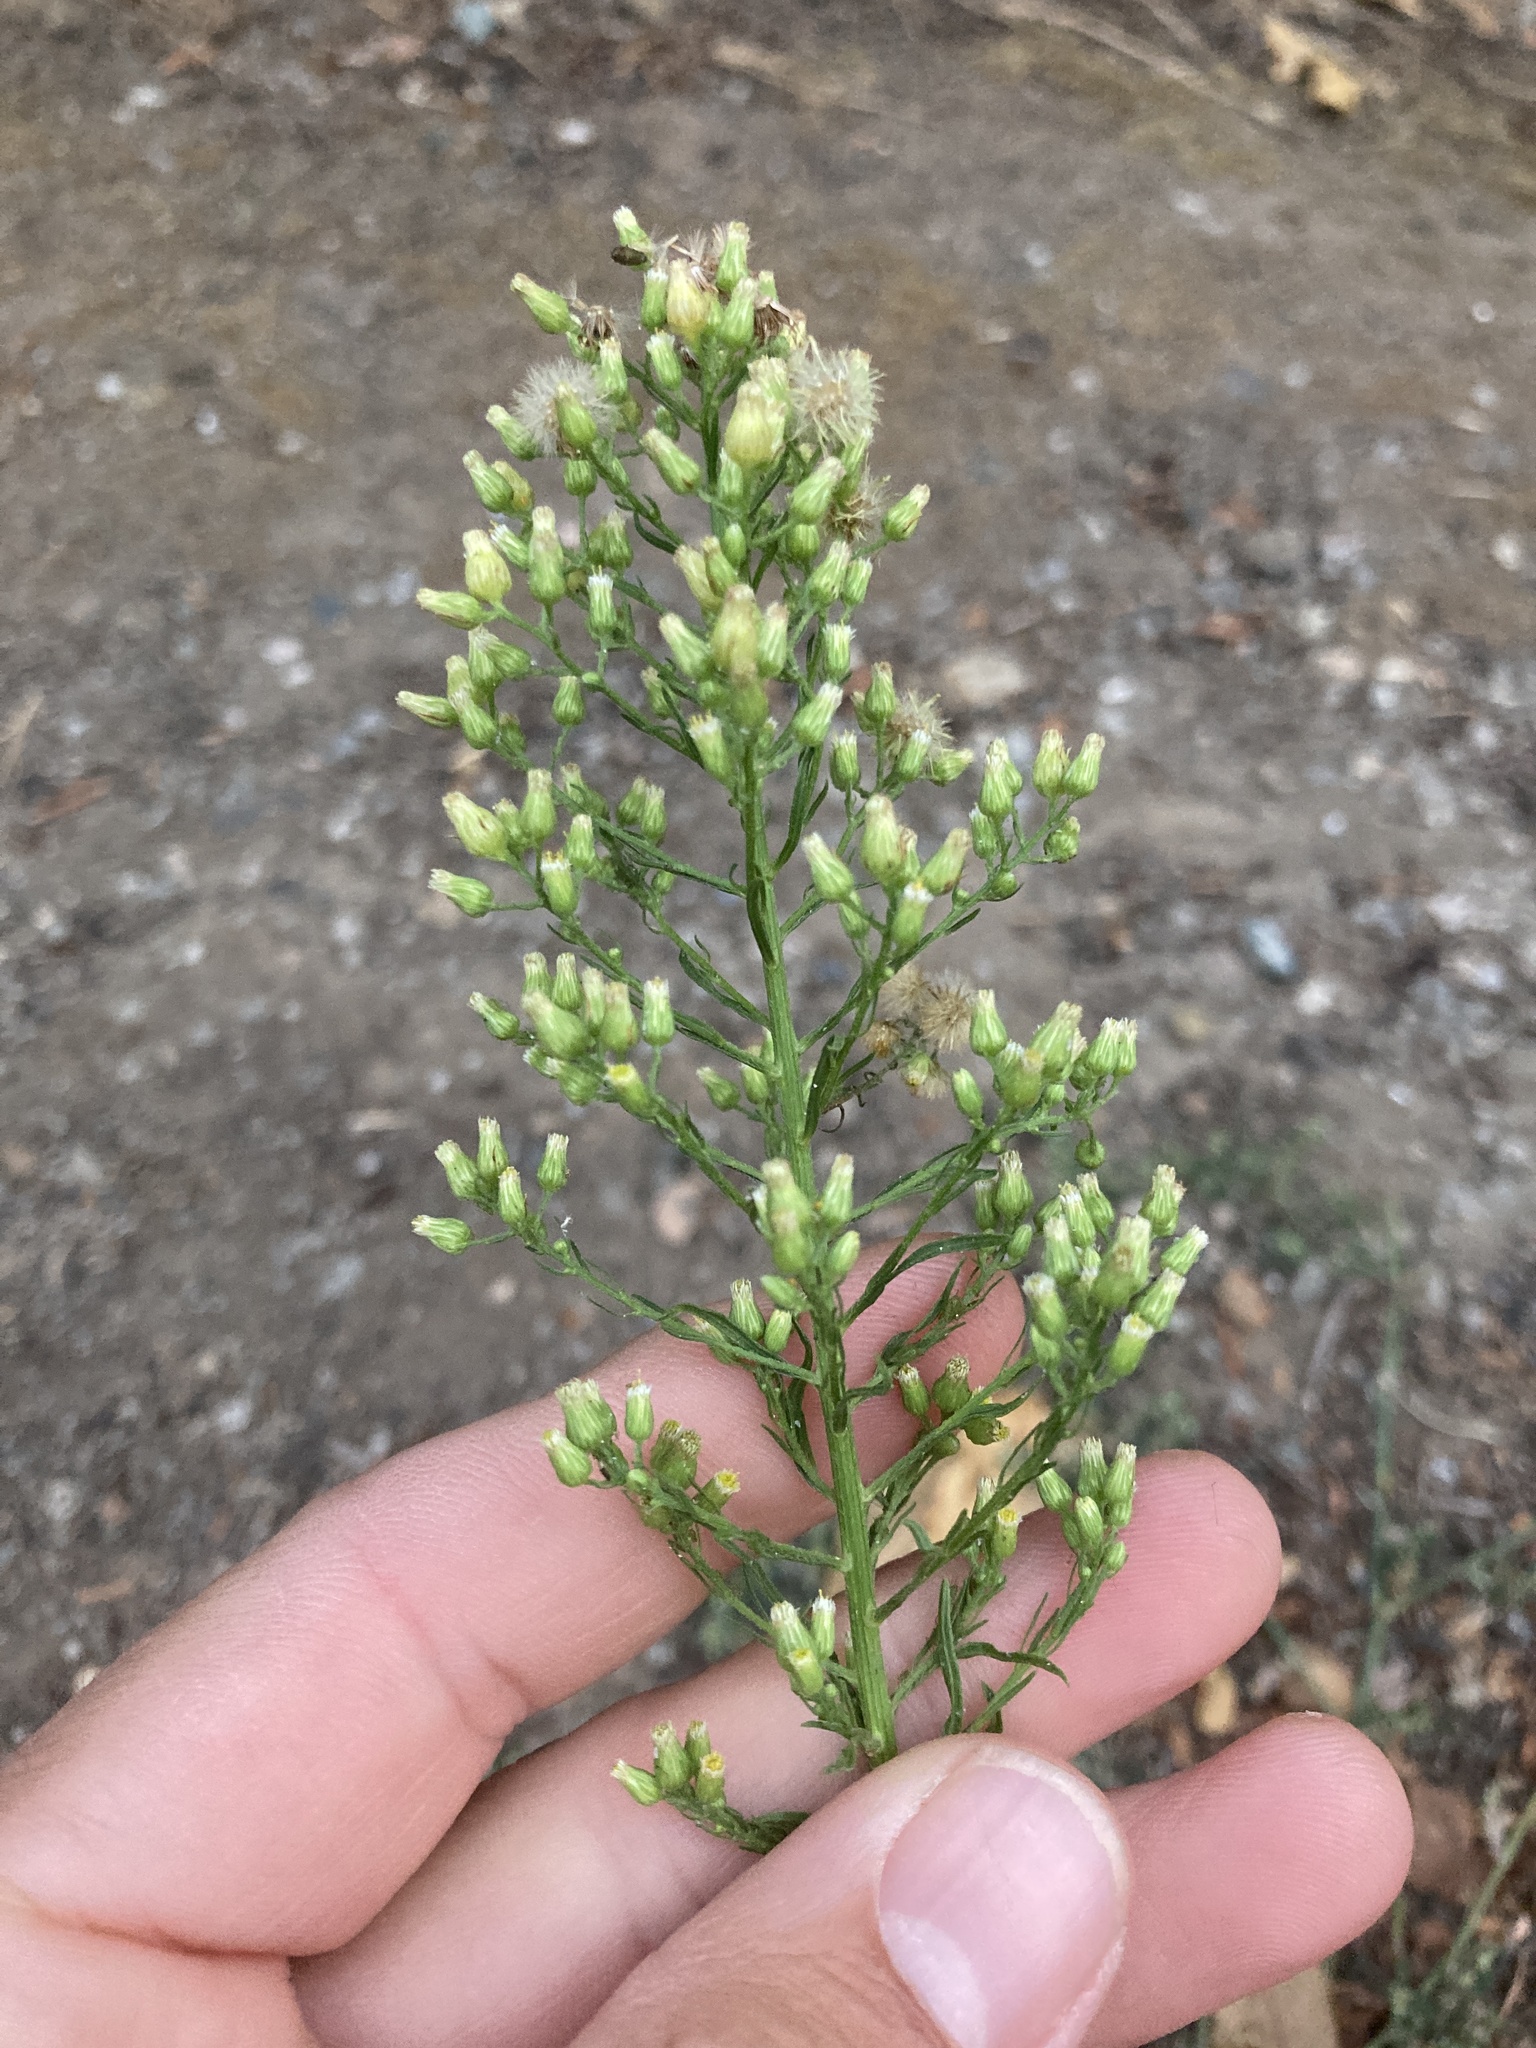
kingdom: Plantae
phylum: Tracheophyta
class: Magnoliopsida
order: Asterales
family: Asteraceae
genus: Erigeron
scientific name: Erigeron canadensis
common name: Canadian fleabane
